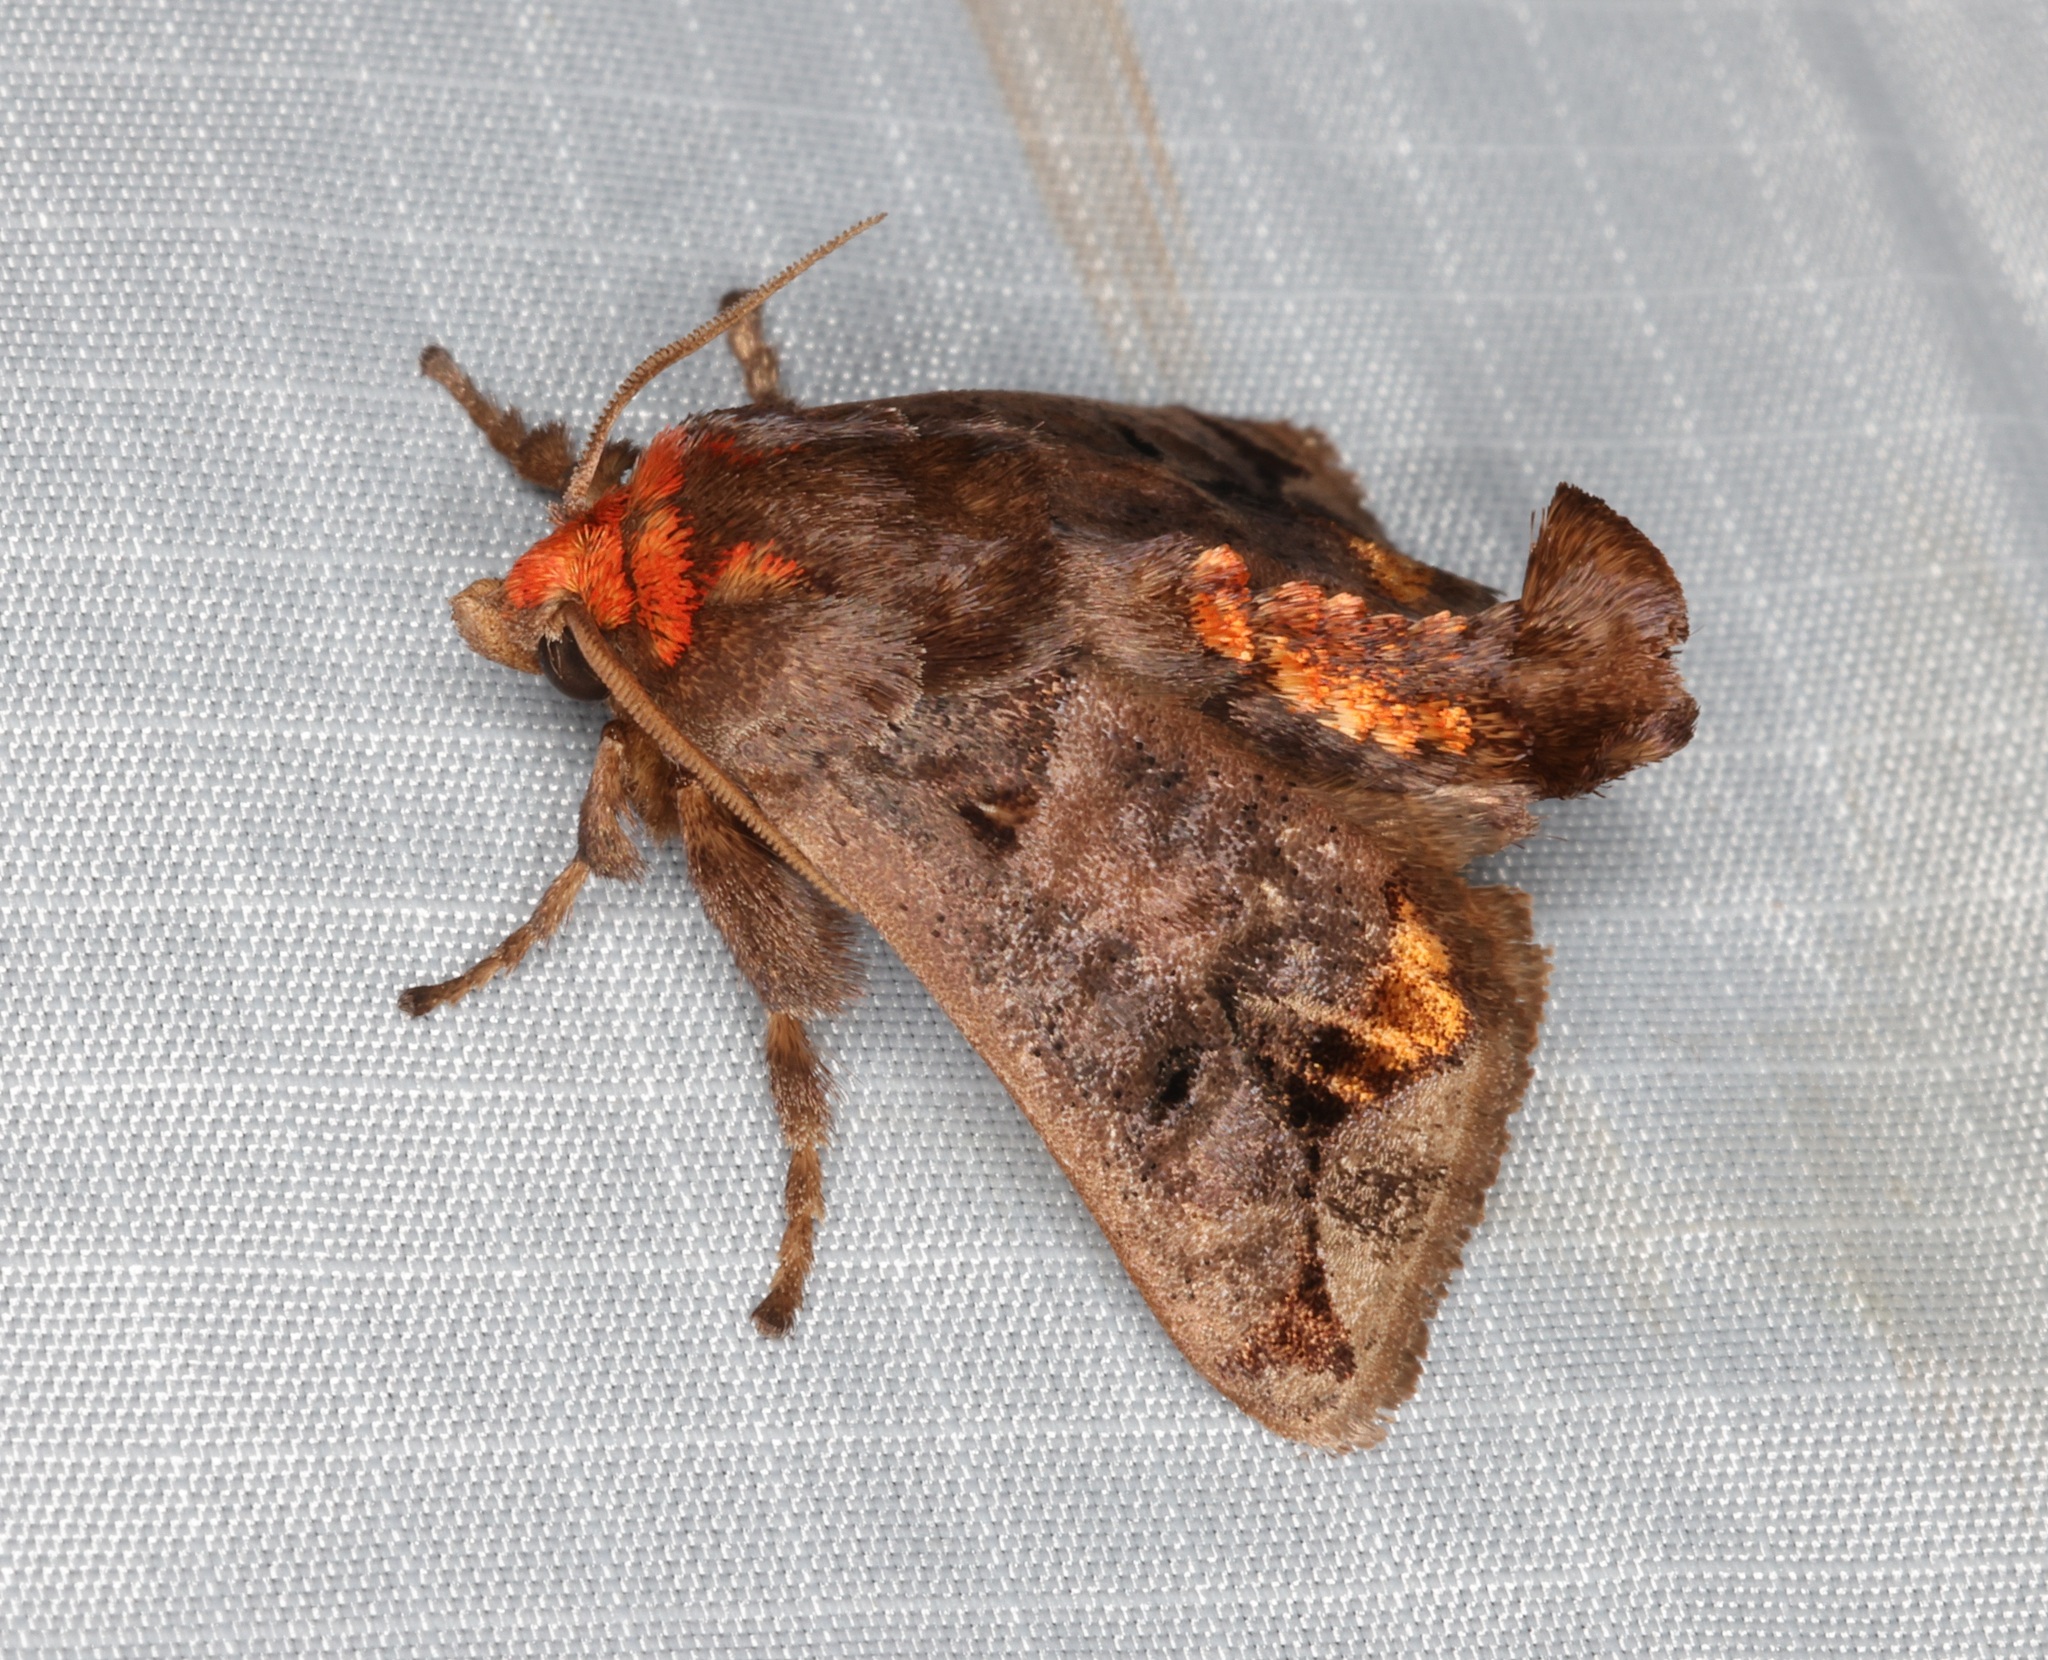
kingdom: Animalia
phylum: Arthropoda
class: Insecta
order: Lepidoptera
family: Limacodidae
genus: Phlossa
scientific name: Phlossa conjuncta
